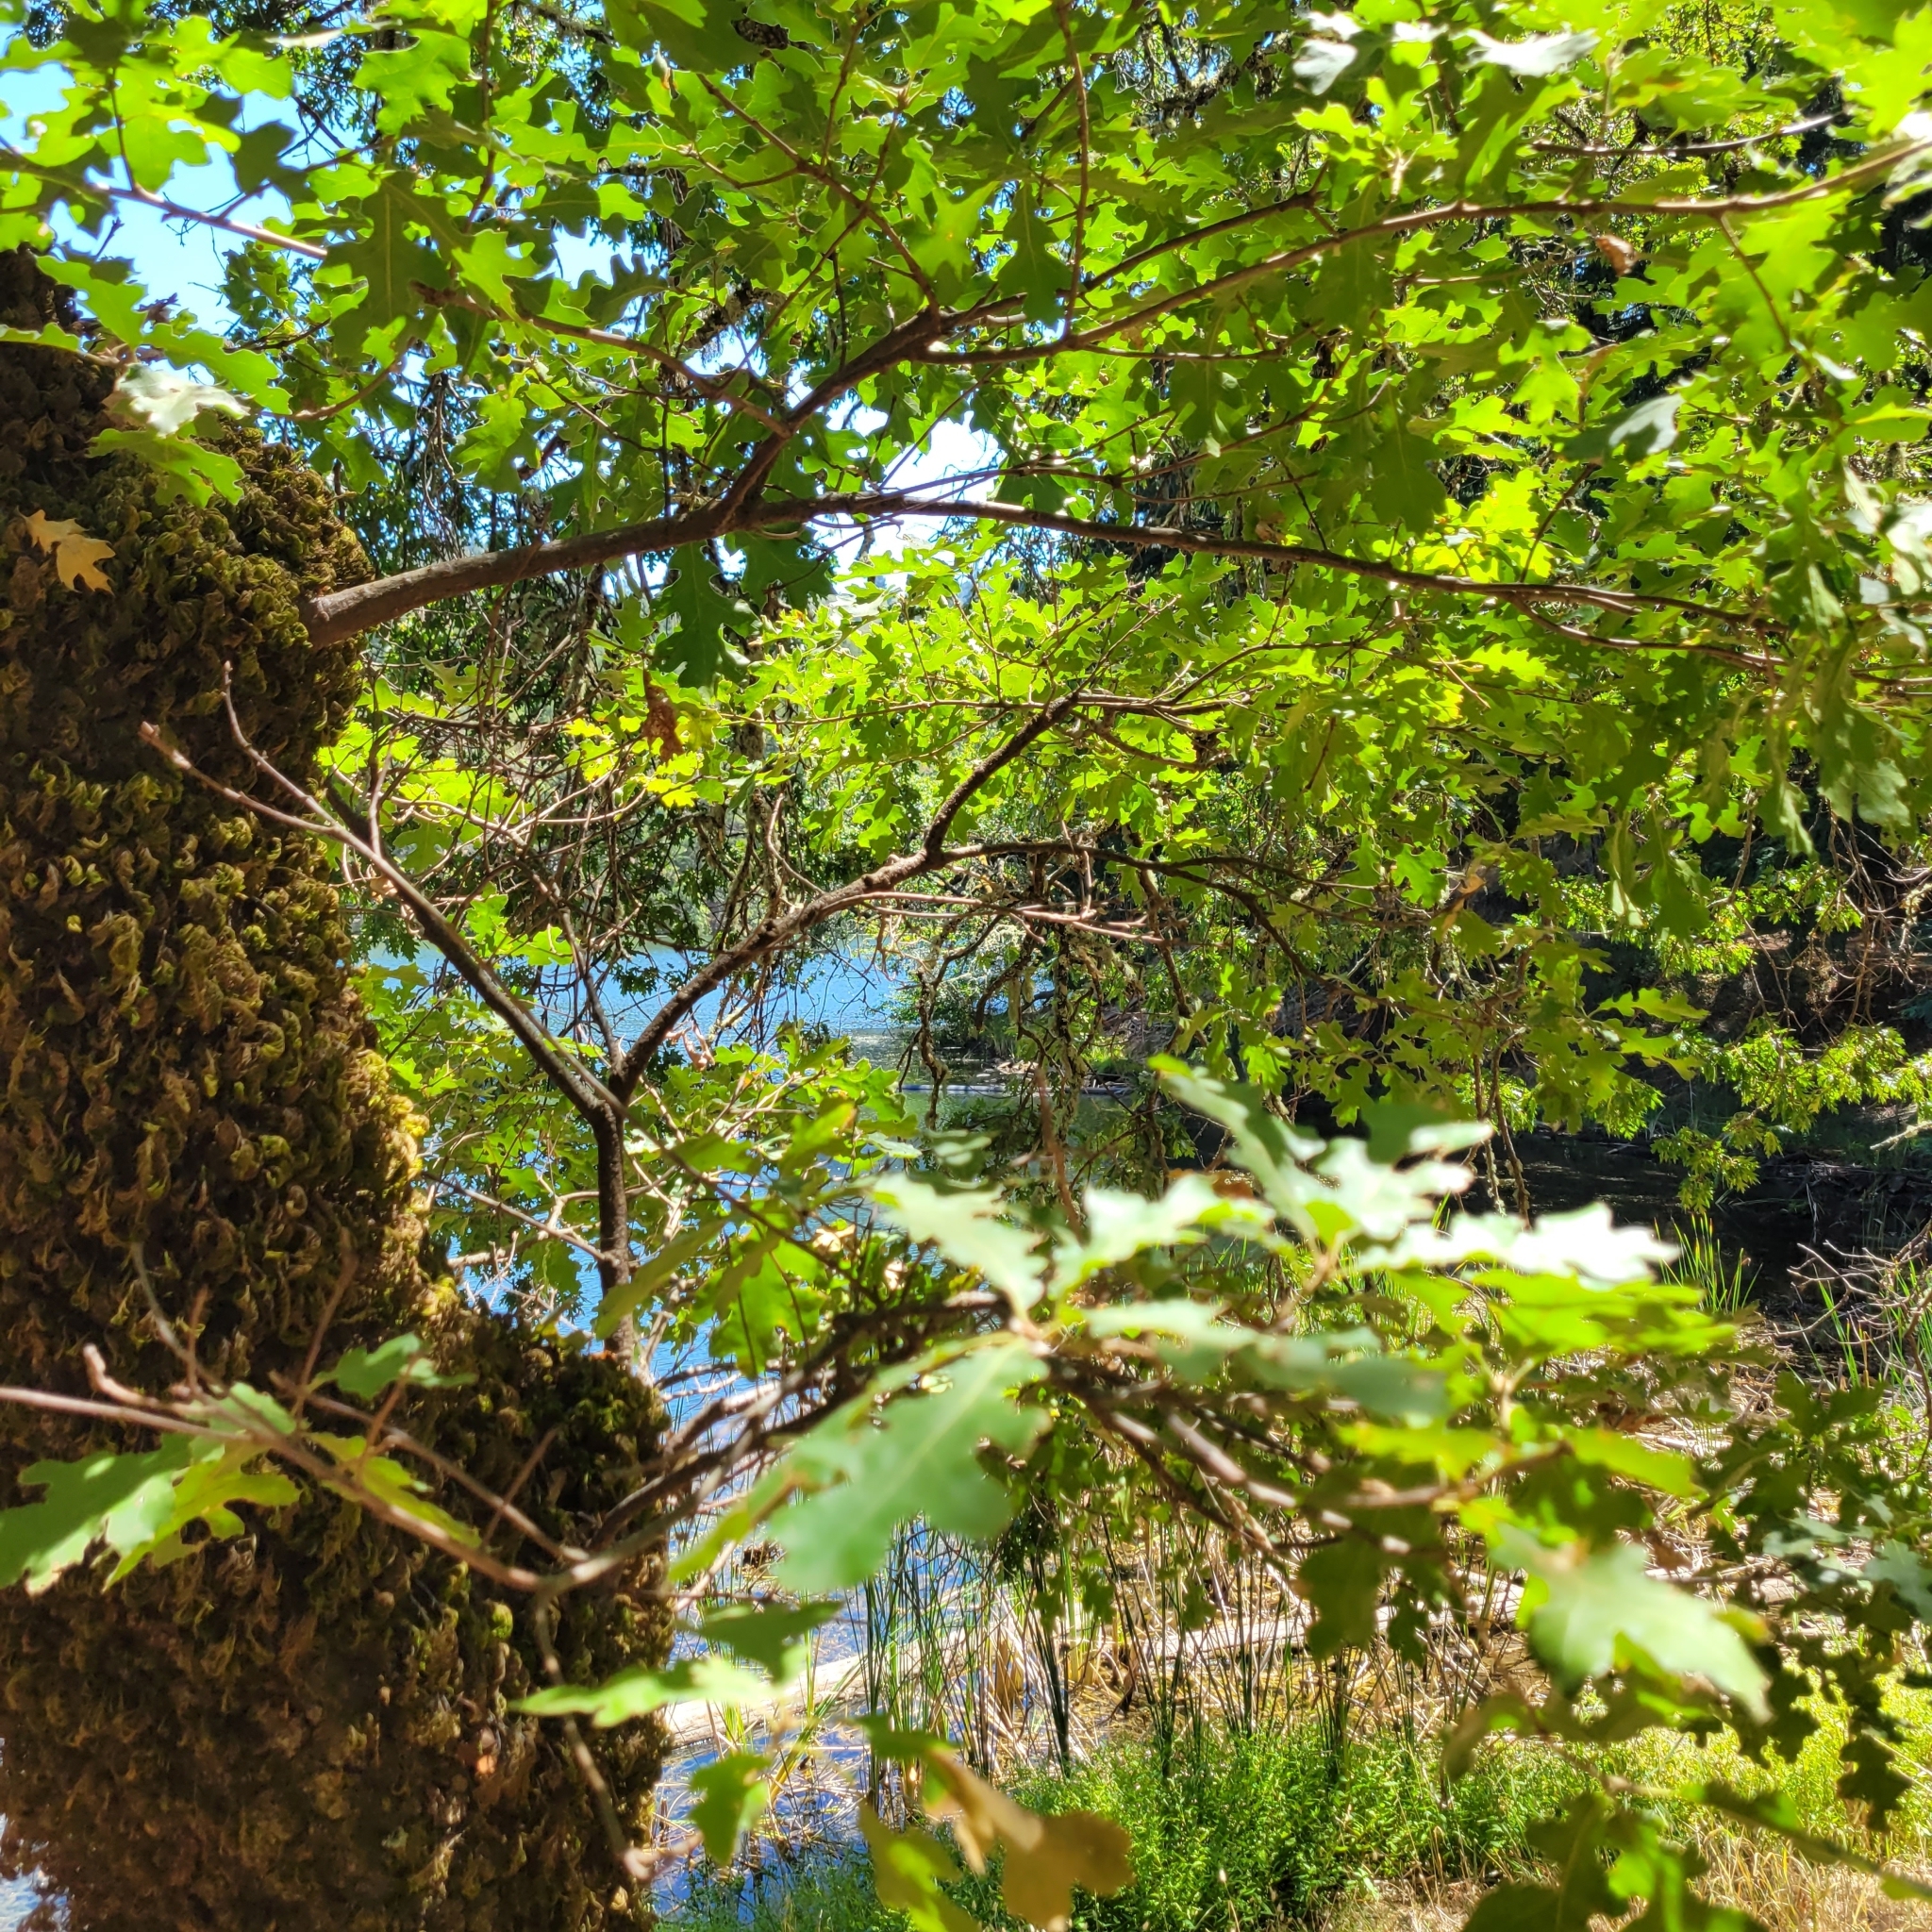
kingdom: Plantae
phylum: Tracheophyta
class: Magnoliopsida
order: Fagales
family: Fagaceae
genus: Quercus
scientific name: Quercus kelloggii
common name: California black oak
